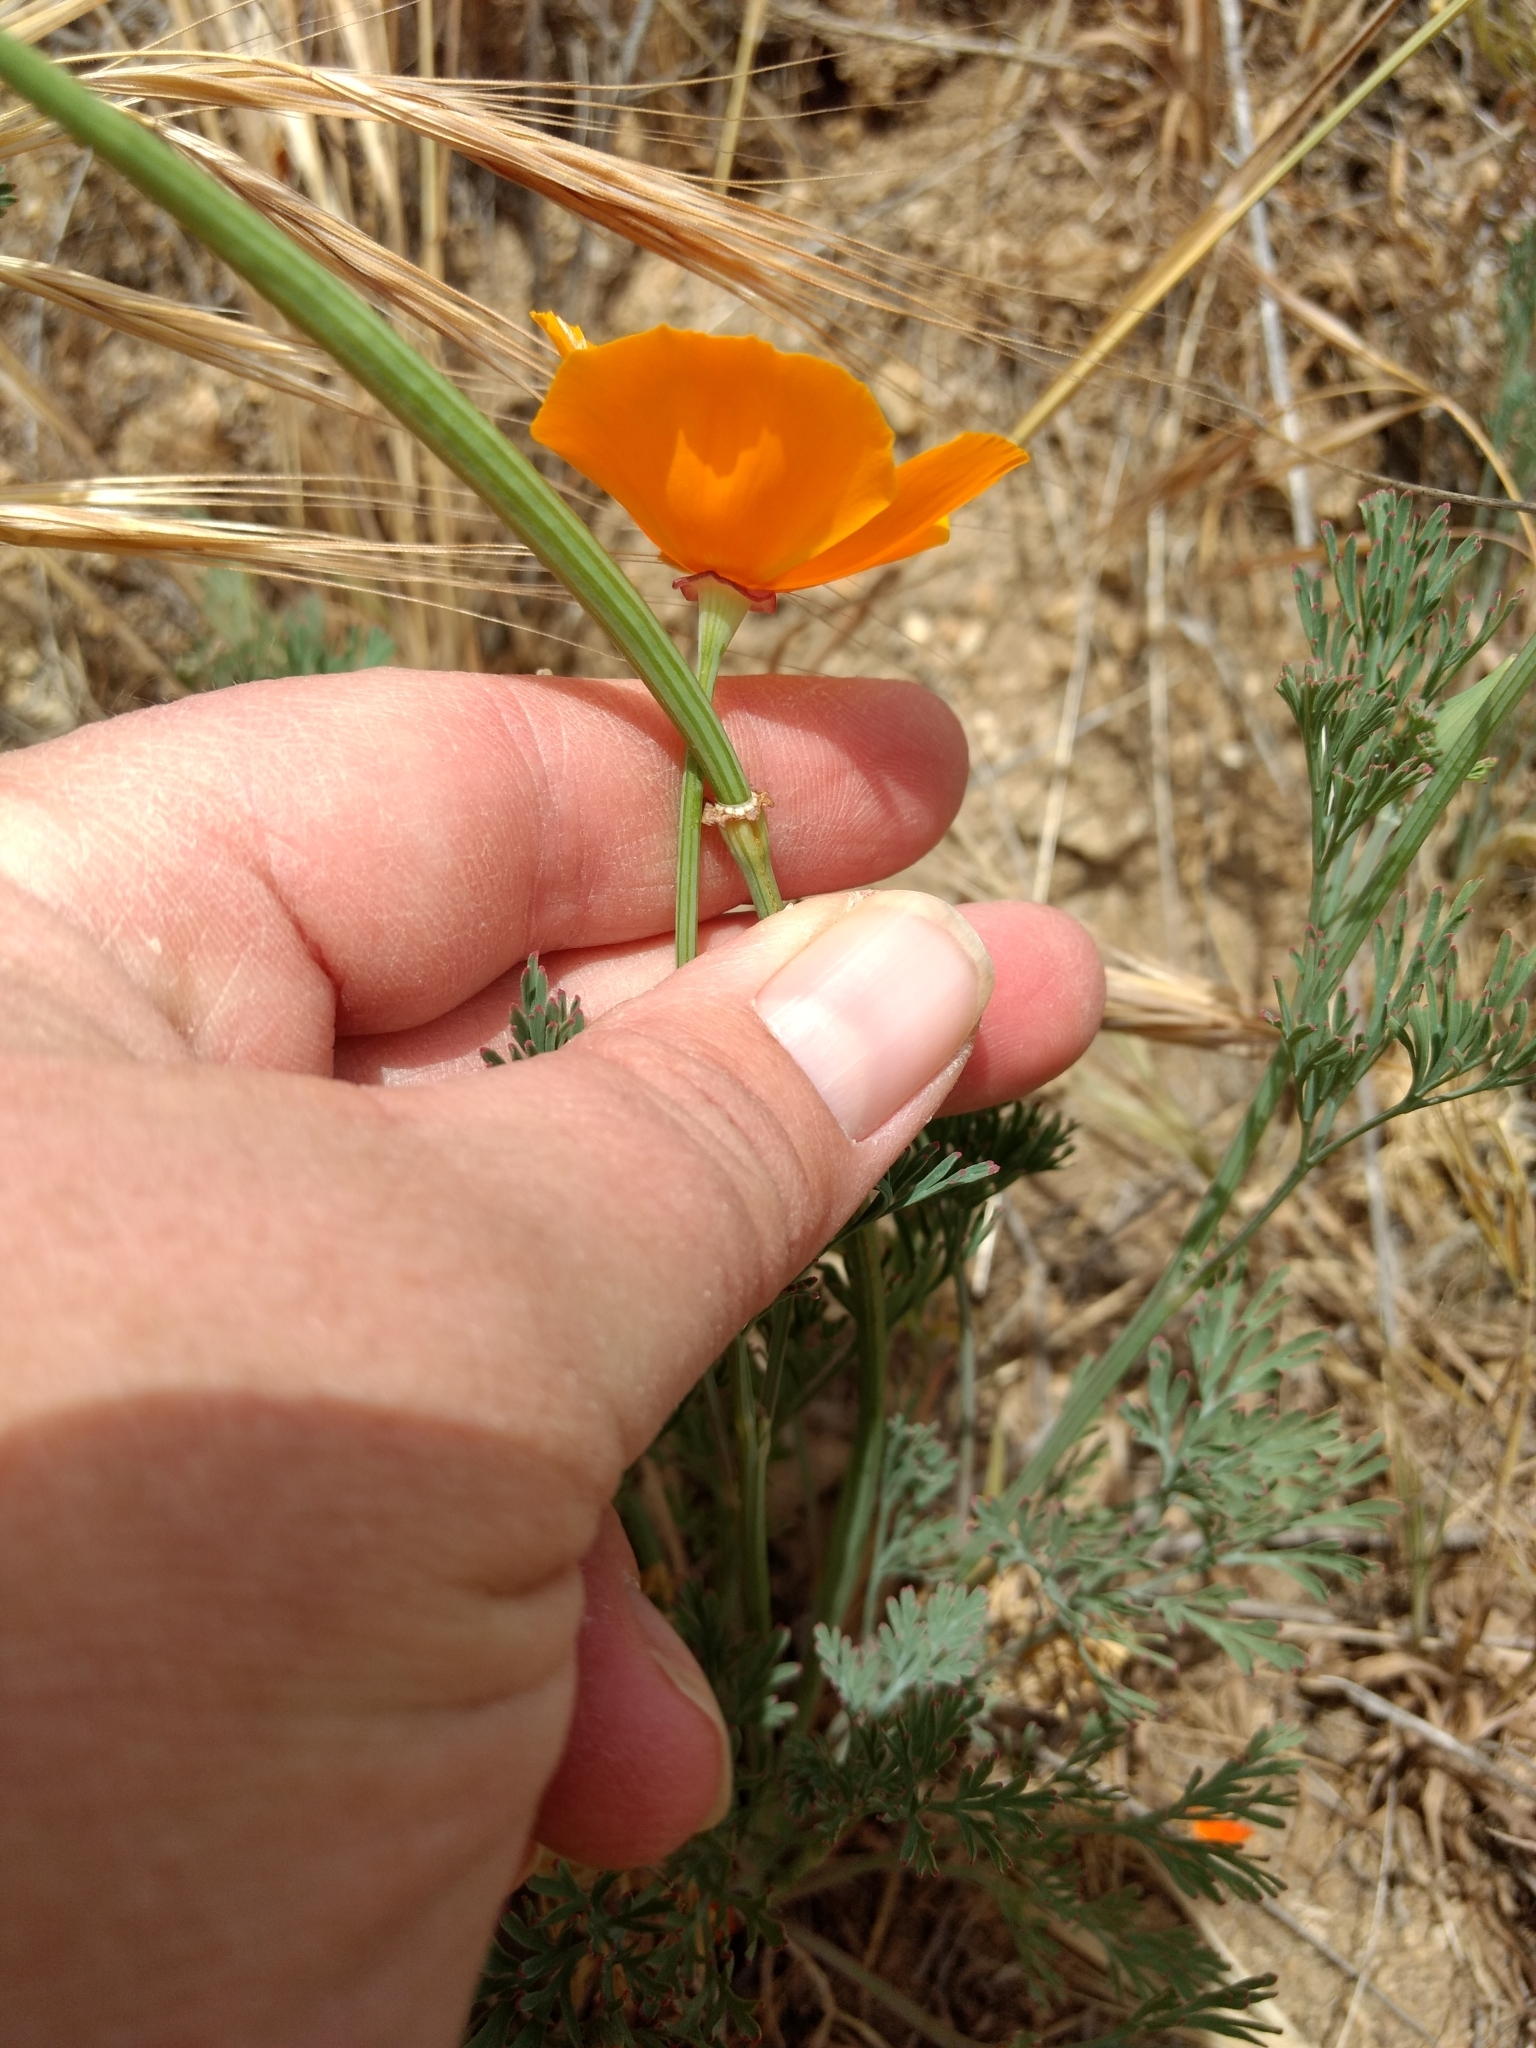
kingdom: Plantae
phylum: Tracheophyta
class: Magnoliopsida
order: Ranunculales
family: Papaveraceae
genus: Eschscholzia
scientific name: Eschscholzia californica
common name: California poppy
